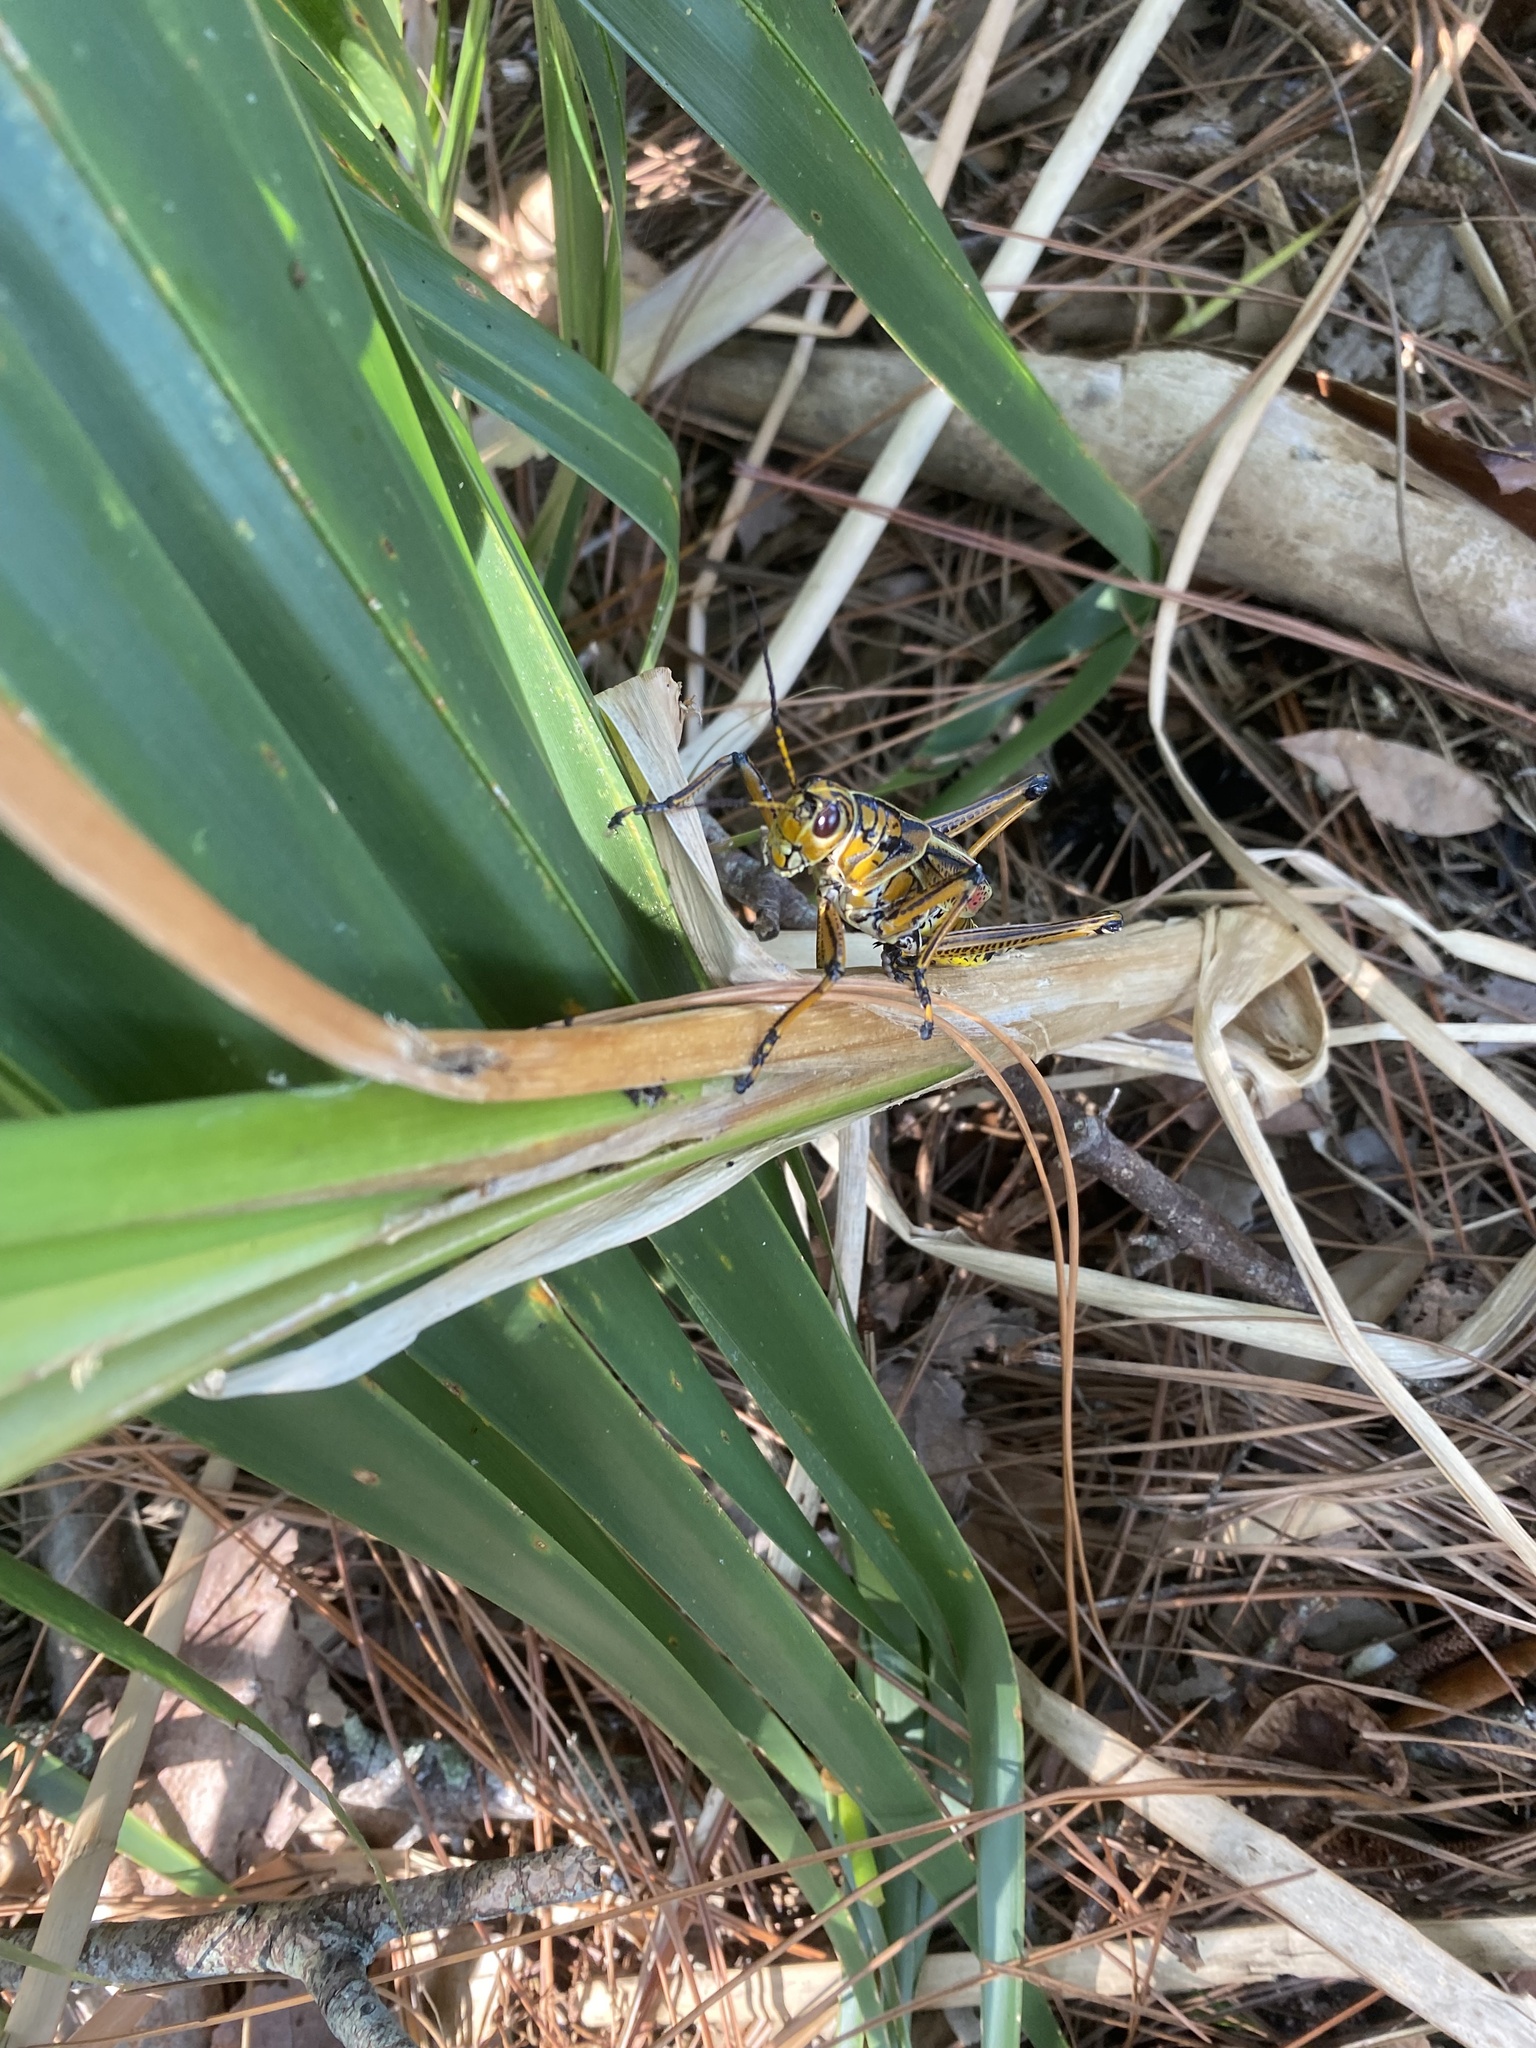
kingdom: Animalia
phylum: Arthropoda
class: Insecta
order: Orthoptera
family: Romaleidae
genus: Romalea
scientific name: Romalea microptera
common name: Eastern lubber grasshopper
